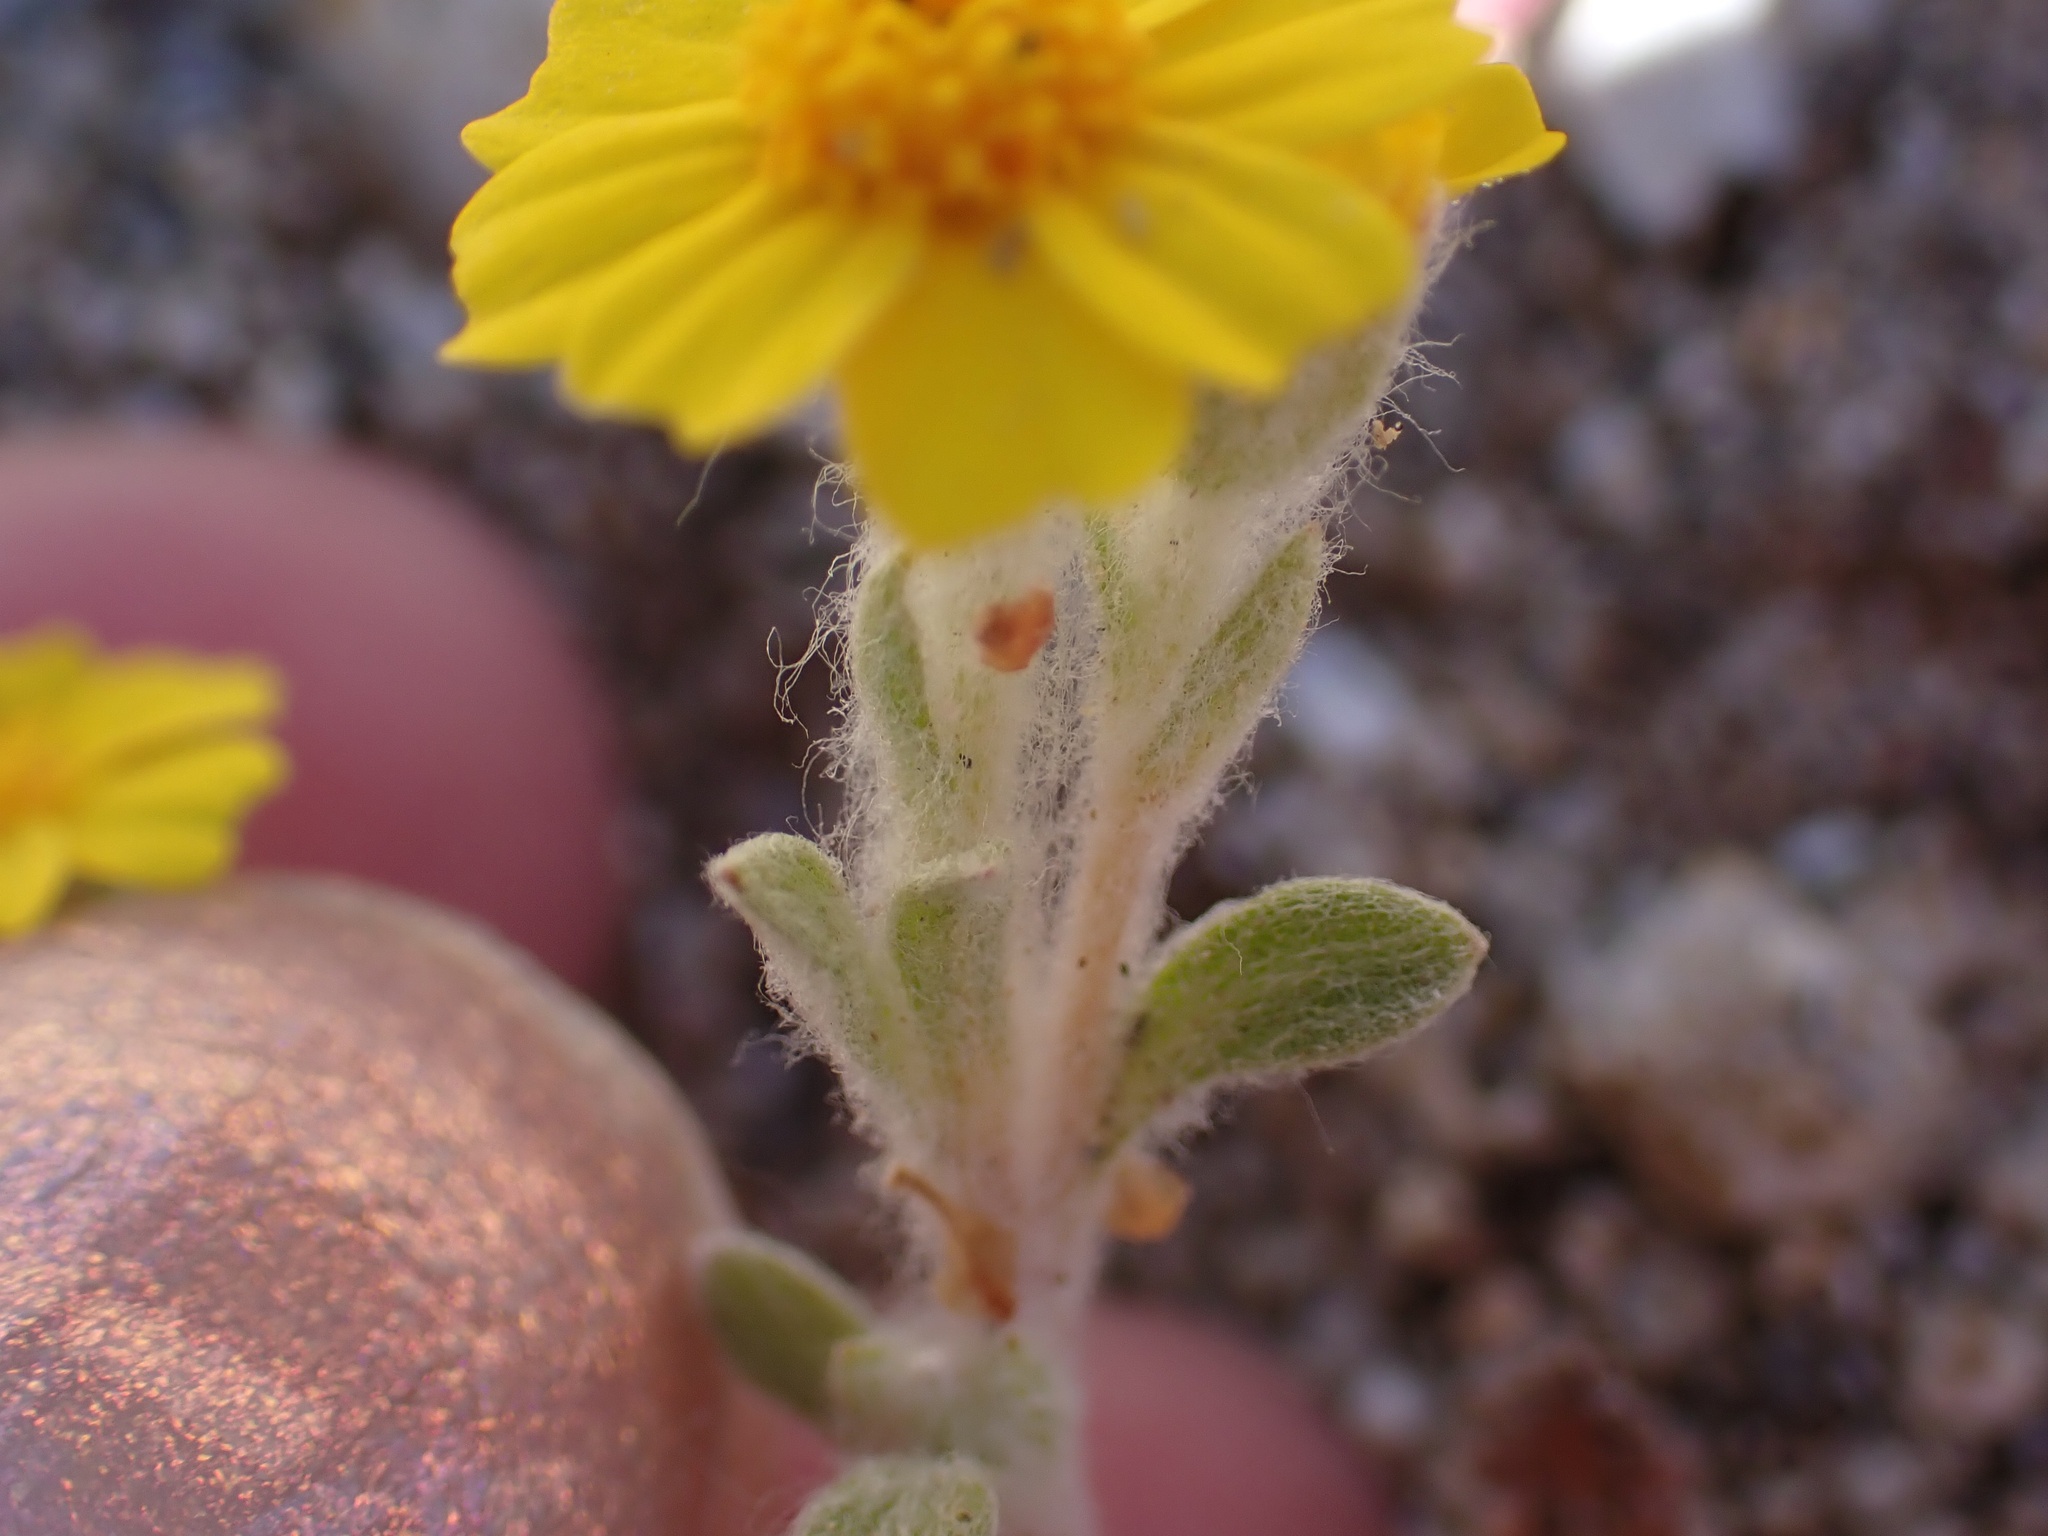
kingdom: Plantae
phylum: Tracheophyta
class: Magnoliopsida
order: Asterales
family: Asteraceae
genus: Eriophyllum
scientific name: Eriophyllum wallacei
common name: Wallace's woolly daisy
